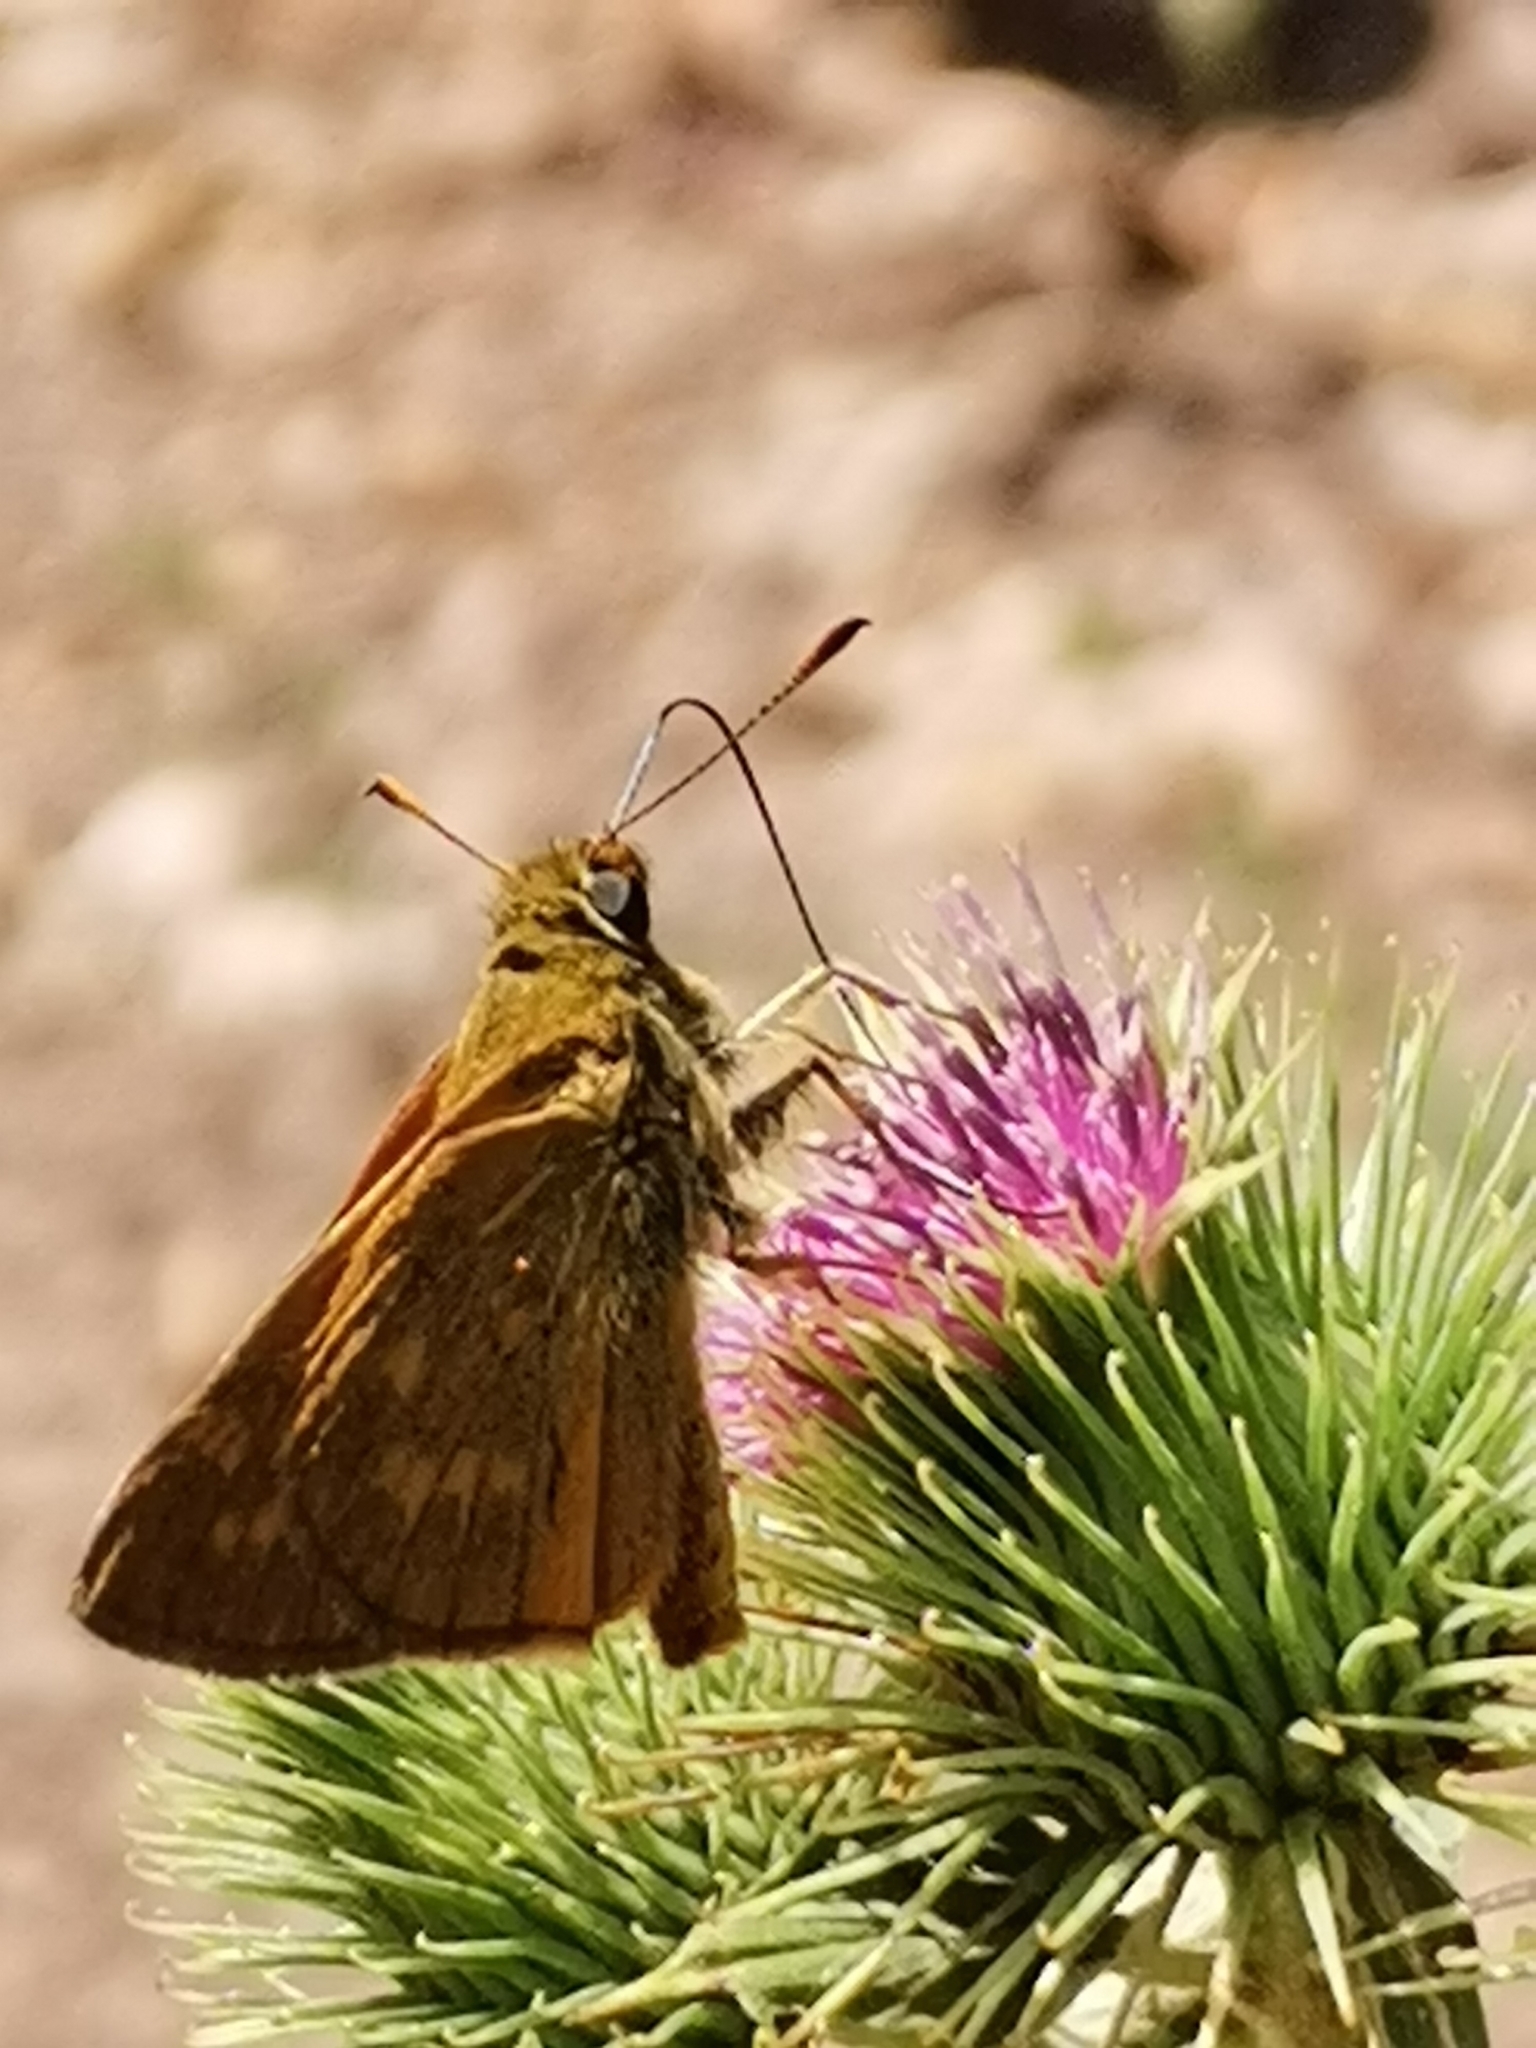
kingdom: Animalia
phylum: Arthropoda
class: Insecta
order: Lepidoptera
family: Hesperiidae
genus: Ochlodes
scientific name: Ochlodes venata
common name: Large skipper
